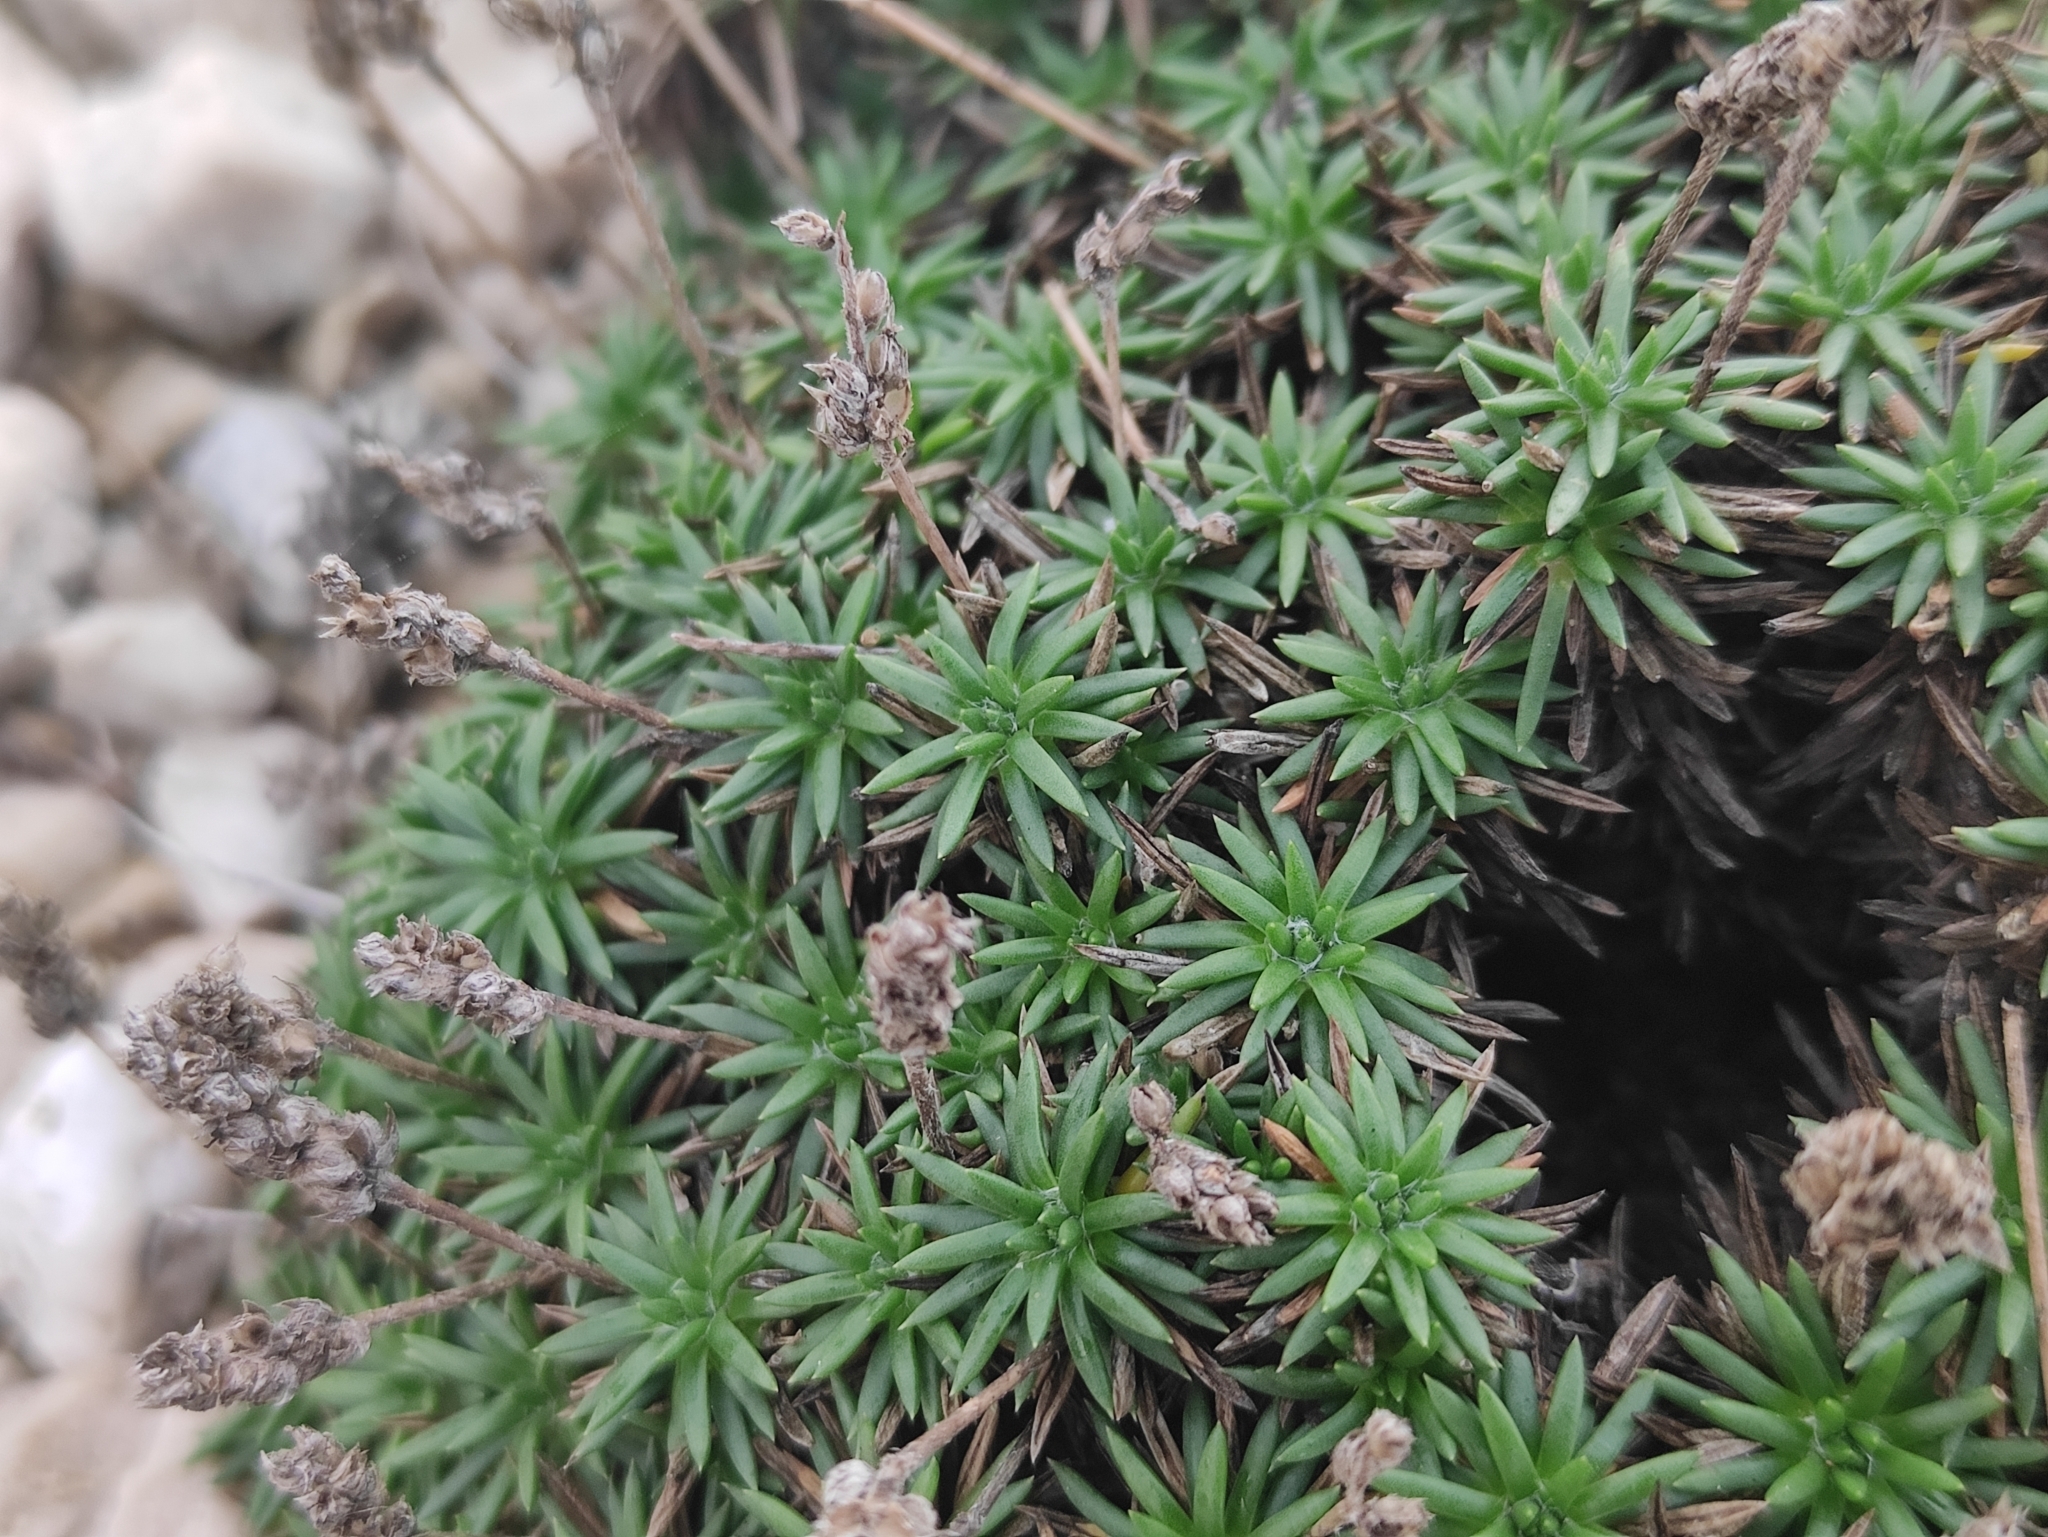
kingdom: Plantae
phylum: Tracheophyta
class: Magnoliopsida
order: Lamiales
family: Plantaginaceae
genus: Plantago
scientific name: Plantago subulata
